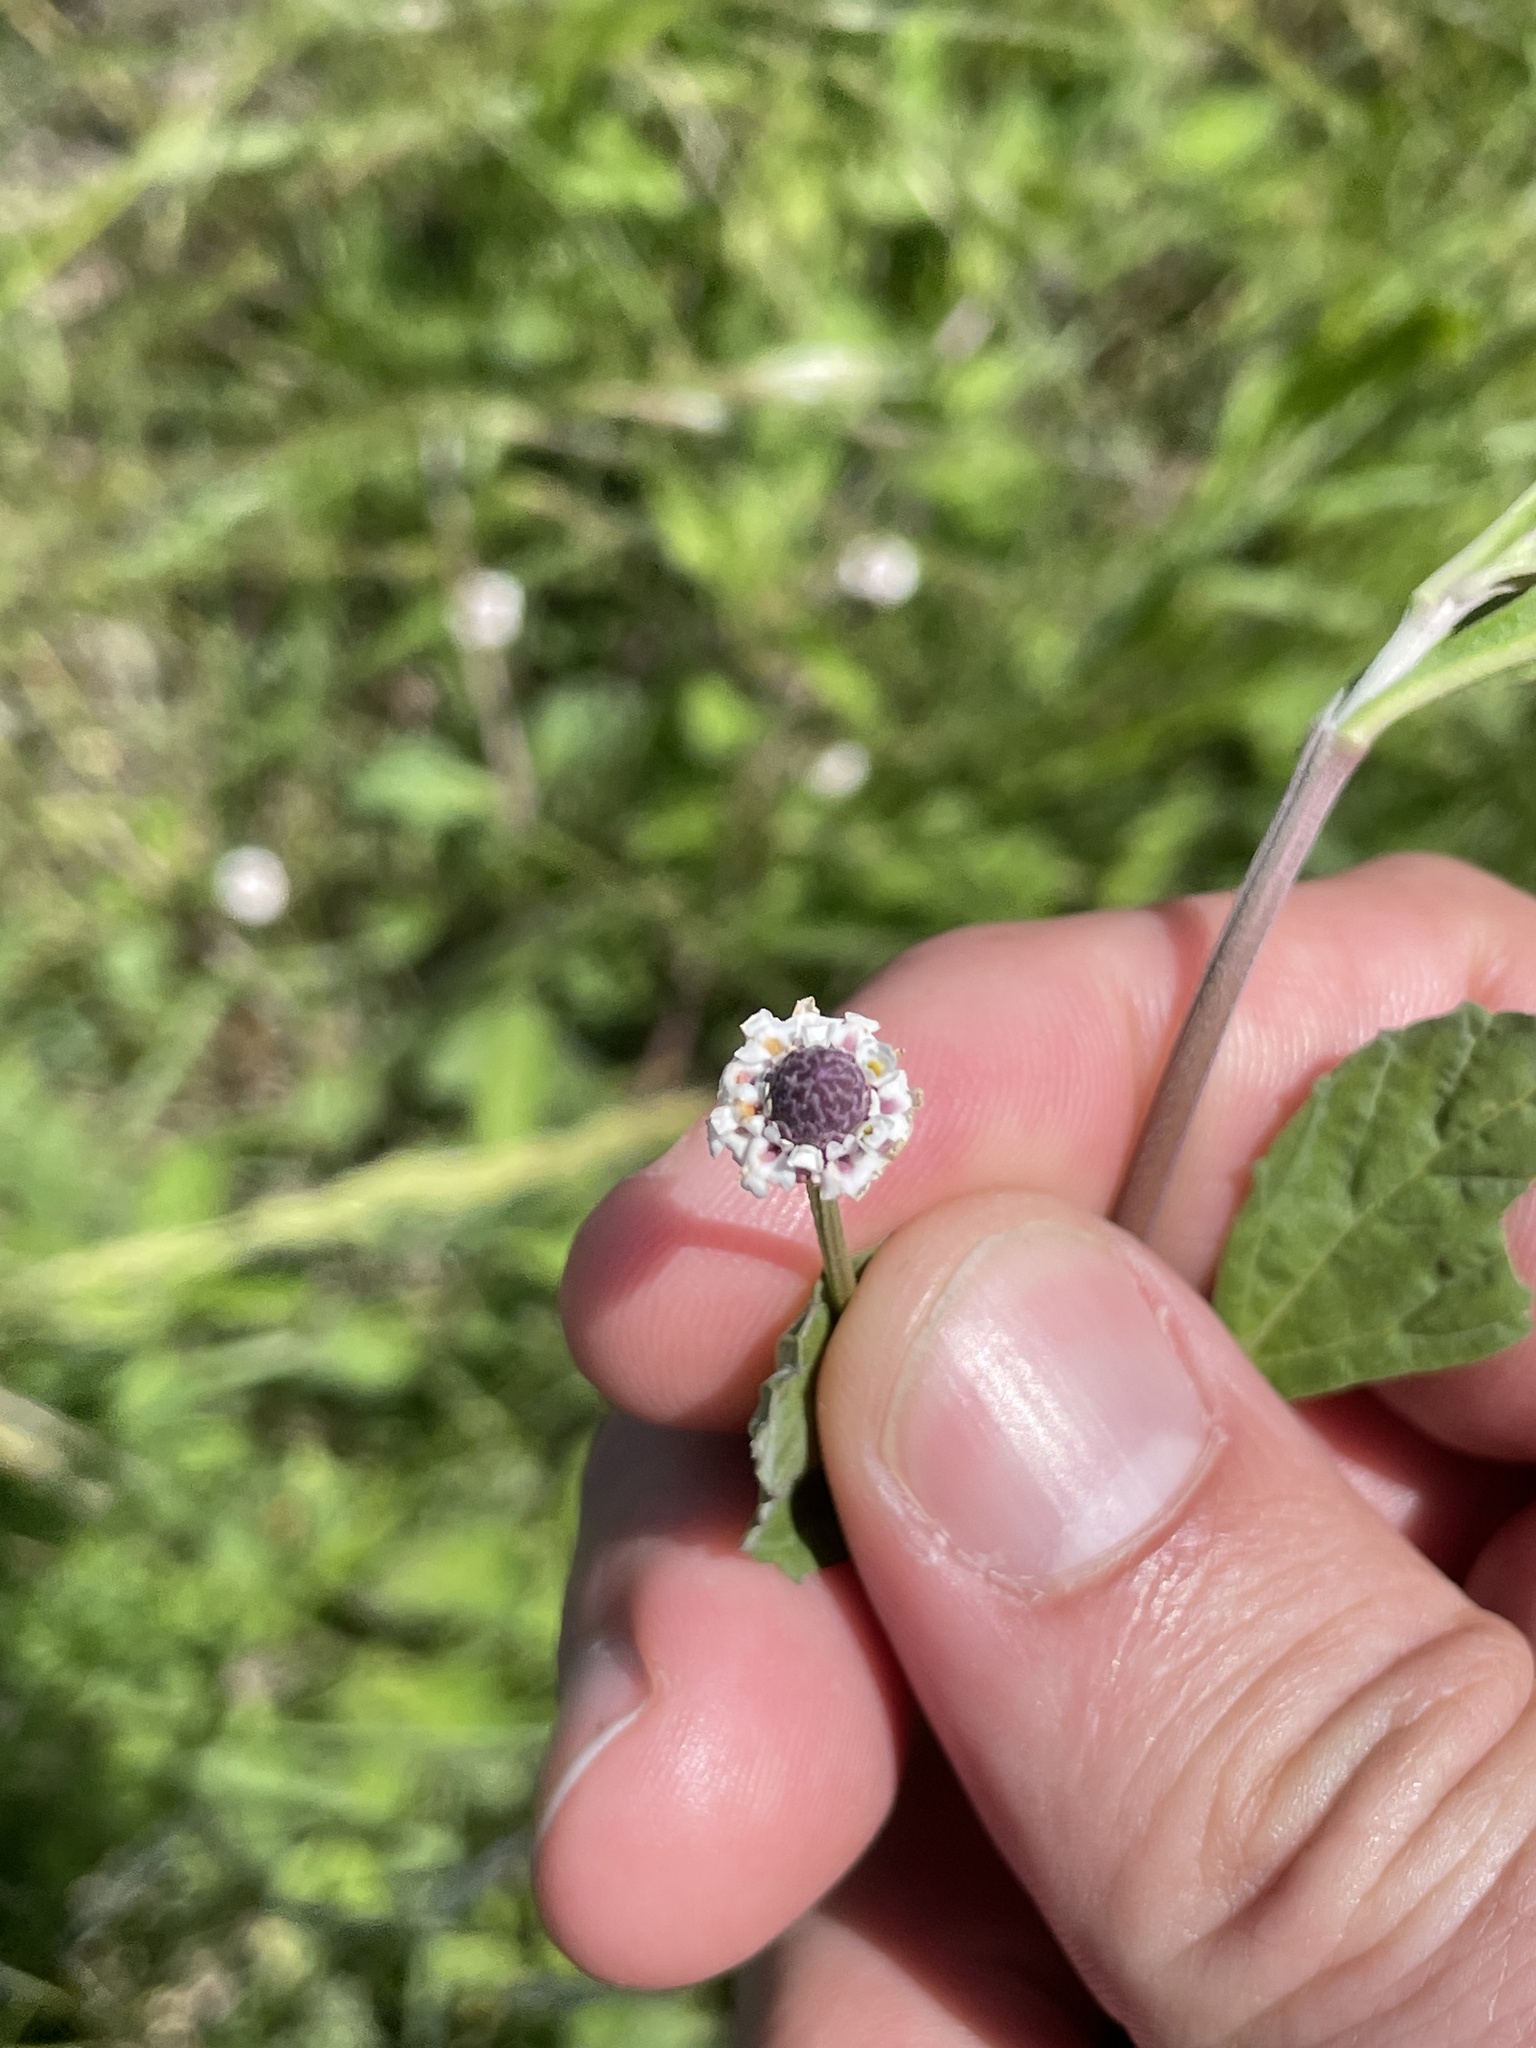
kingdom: Plantae
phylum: Tracheophyta
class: Magnoliopsida
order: Lamiales
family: Verbenaceae
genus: Phyla
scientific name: Phyla lanceolata
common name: Northern fogfruit
